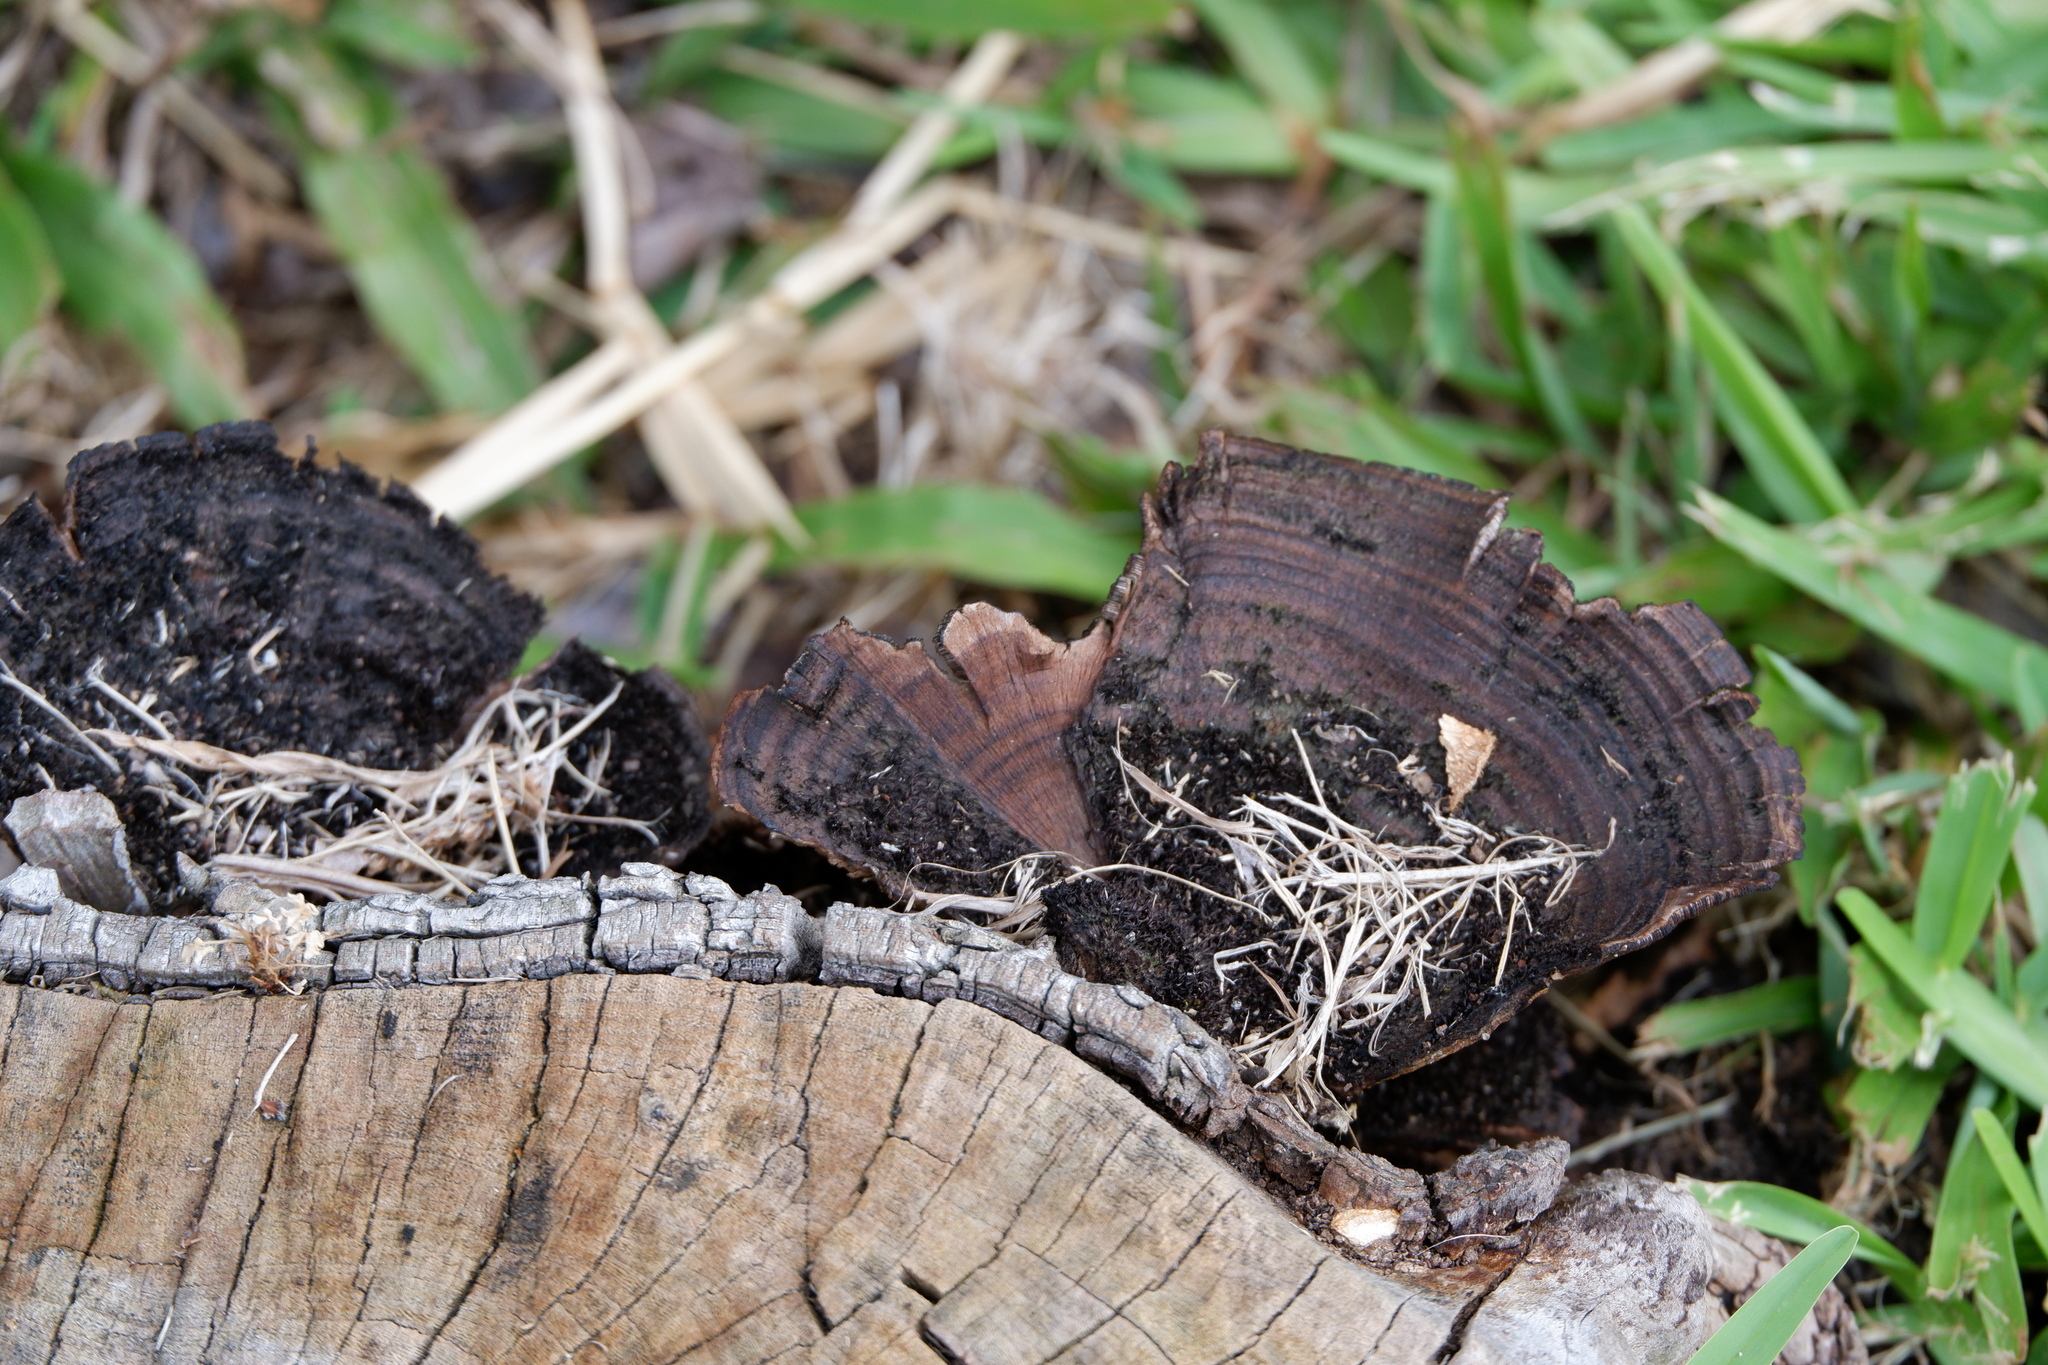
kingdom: Fungi
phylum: Basidiomycota
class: Agaricomycetes
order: Polyporales
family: Cerrenaceae
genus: Cerrena
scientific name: Cerrena hydnoides
